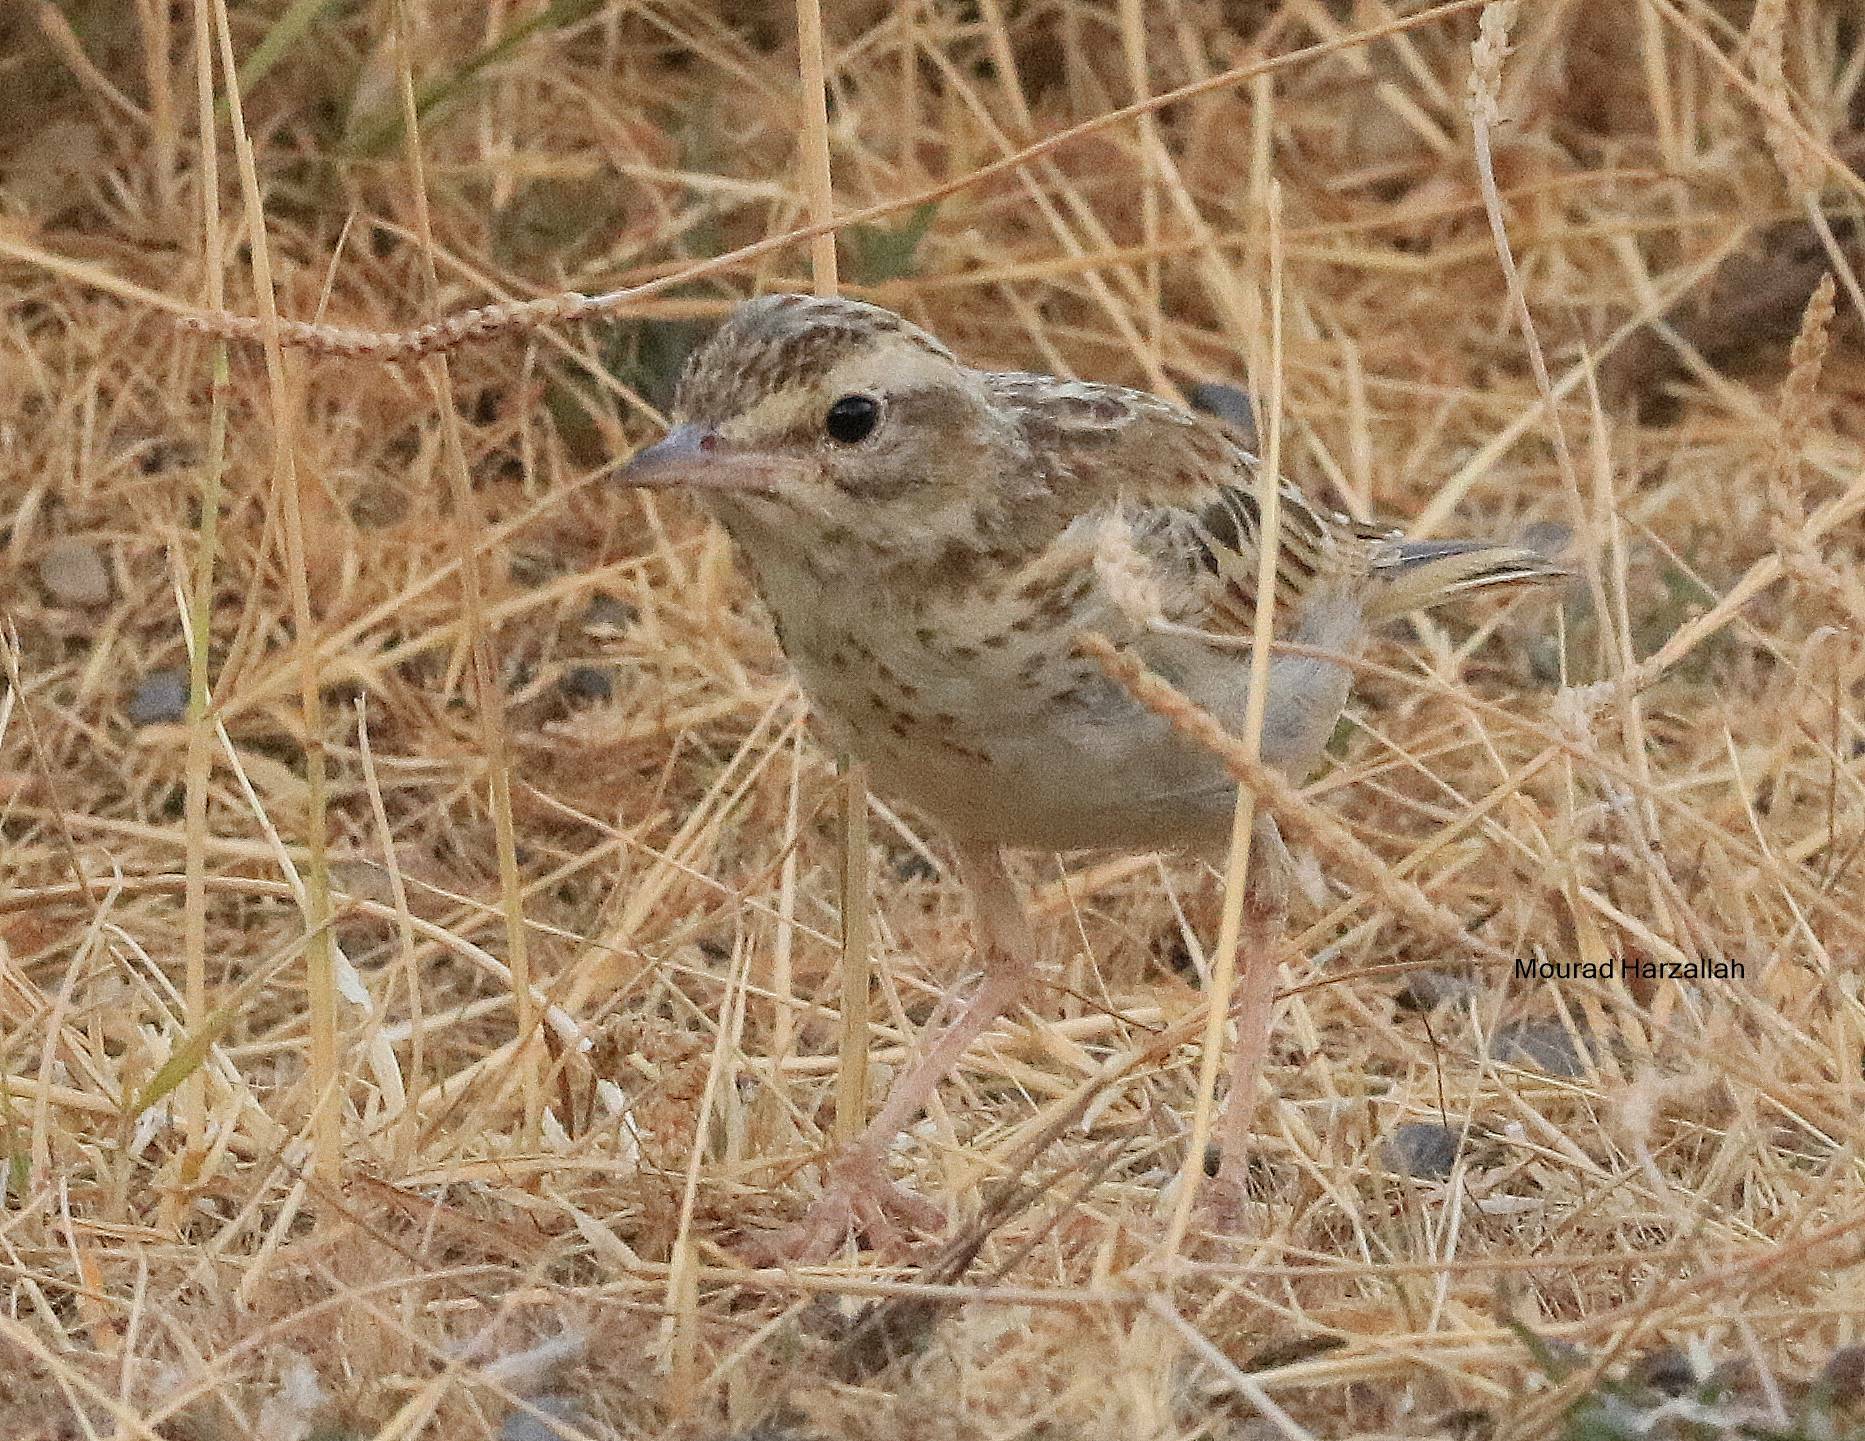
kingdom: Animalia
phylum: Chordata
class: Aves
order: Passeriformes
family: Motacillidae
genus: Anthus
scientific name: Anthus campestris
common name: Tawny pipit
